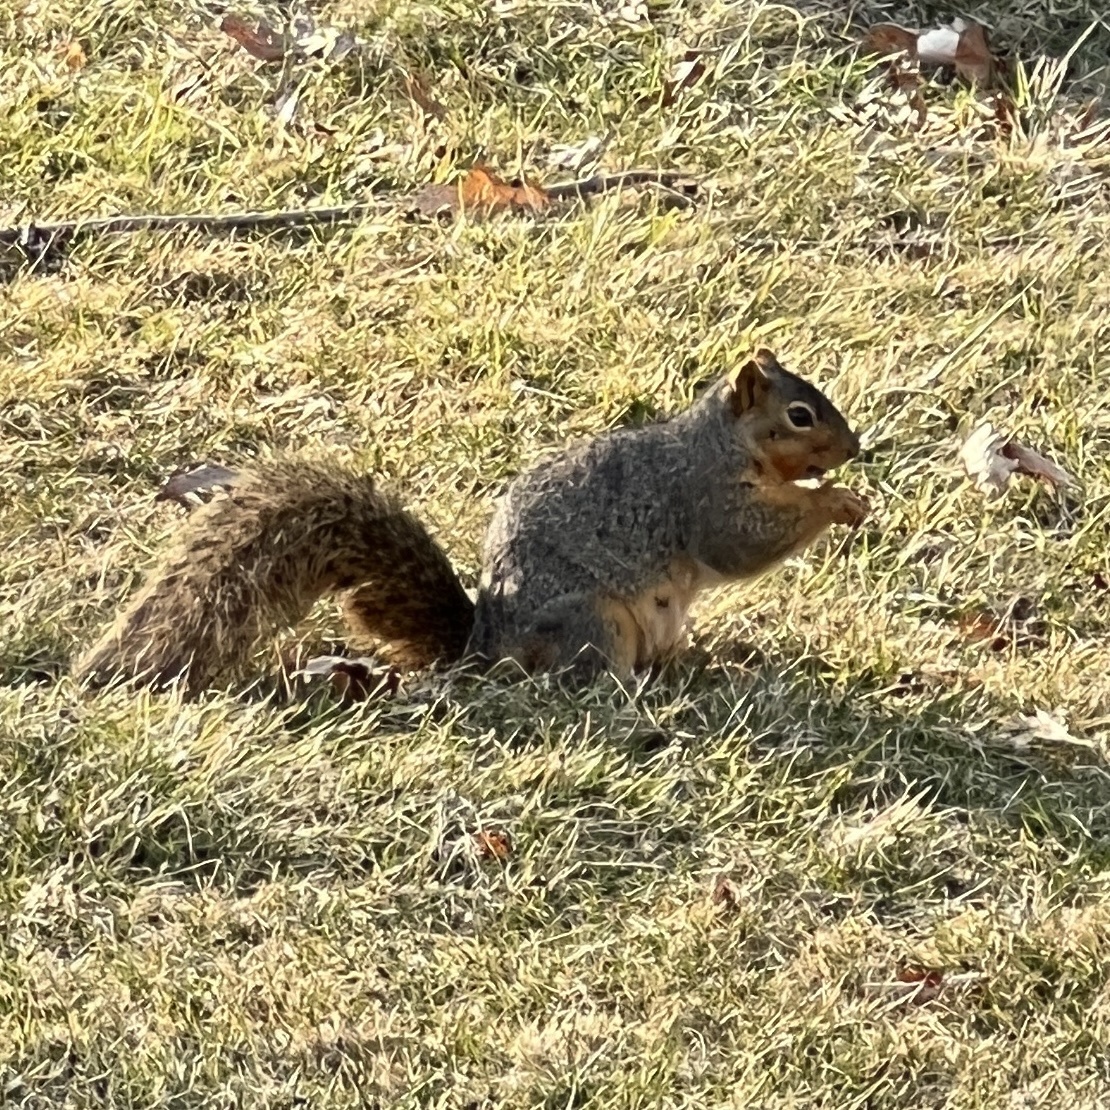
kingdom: Animalia
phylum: Chordata
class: Mammalia
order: Rodentia
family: Sciuridae
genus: Sciurus
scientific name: Sciurus niger
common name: Fox squirrel
